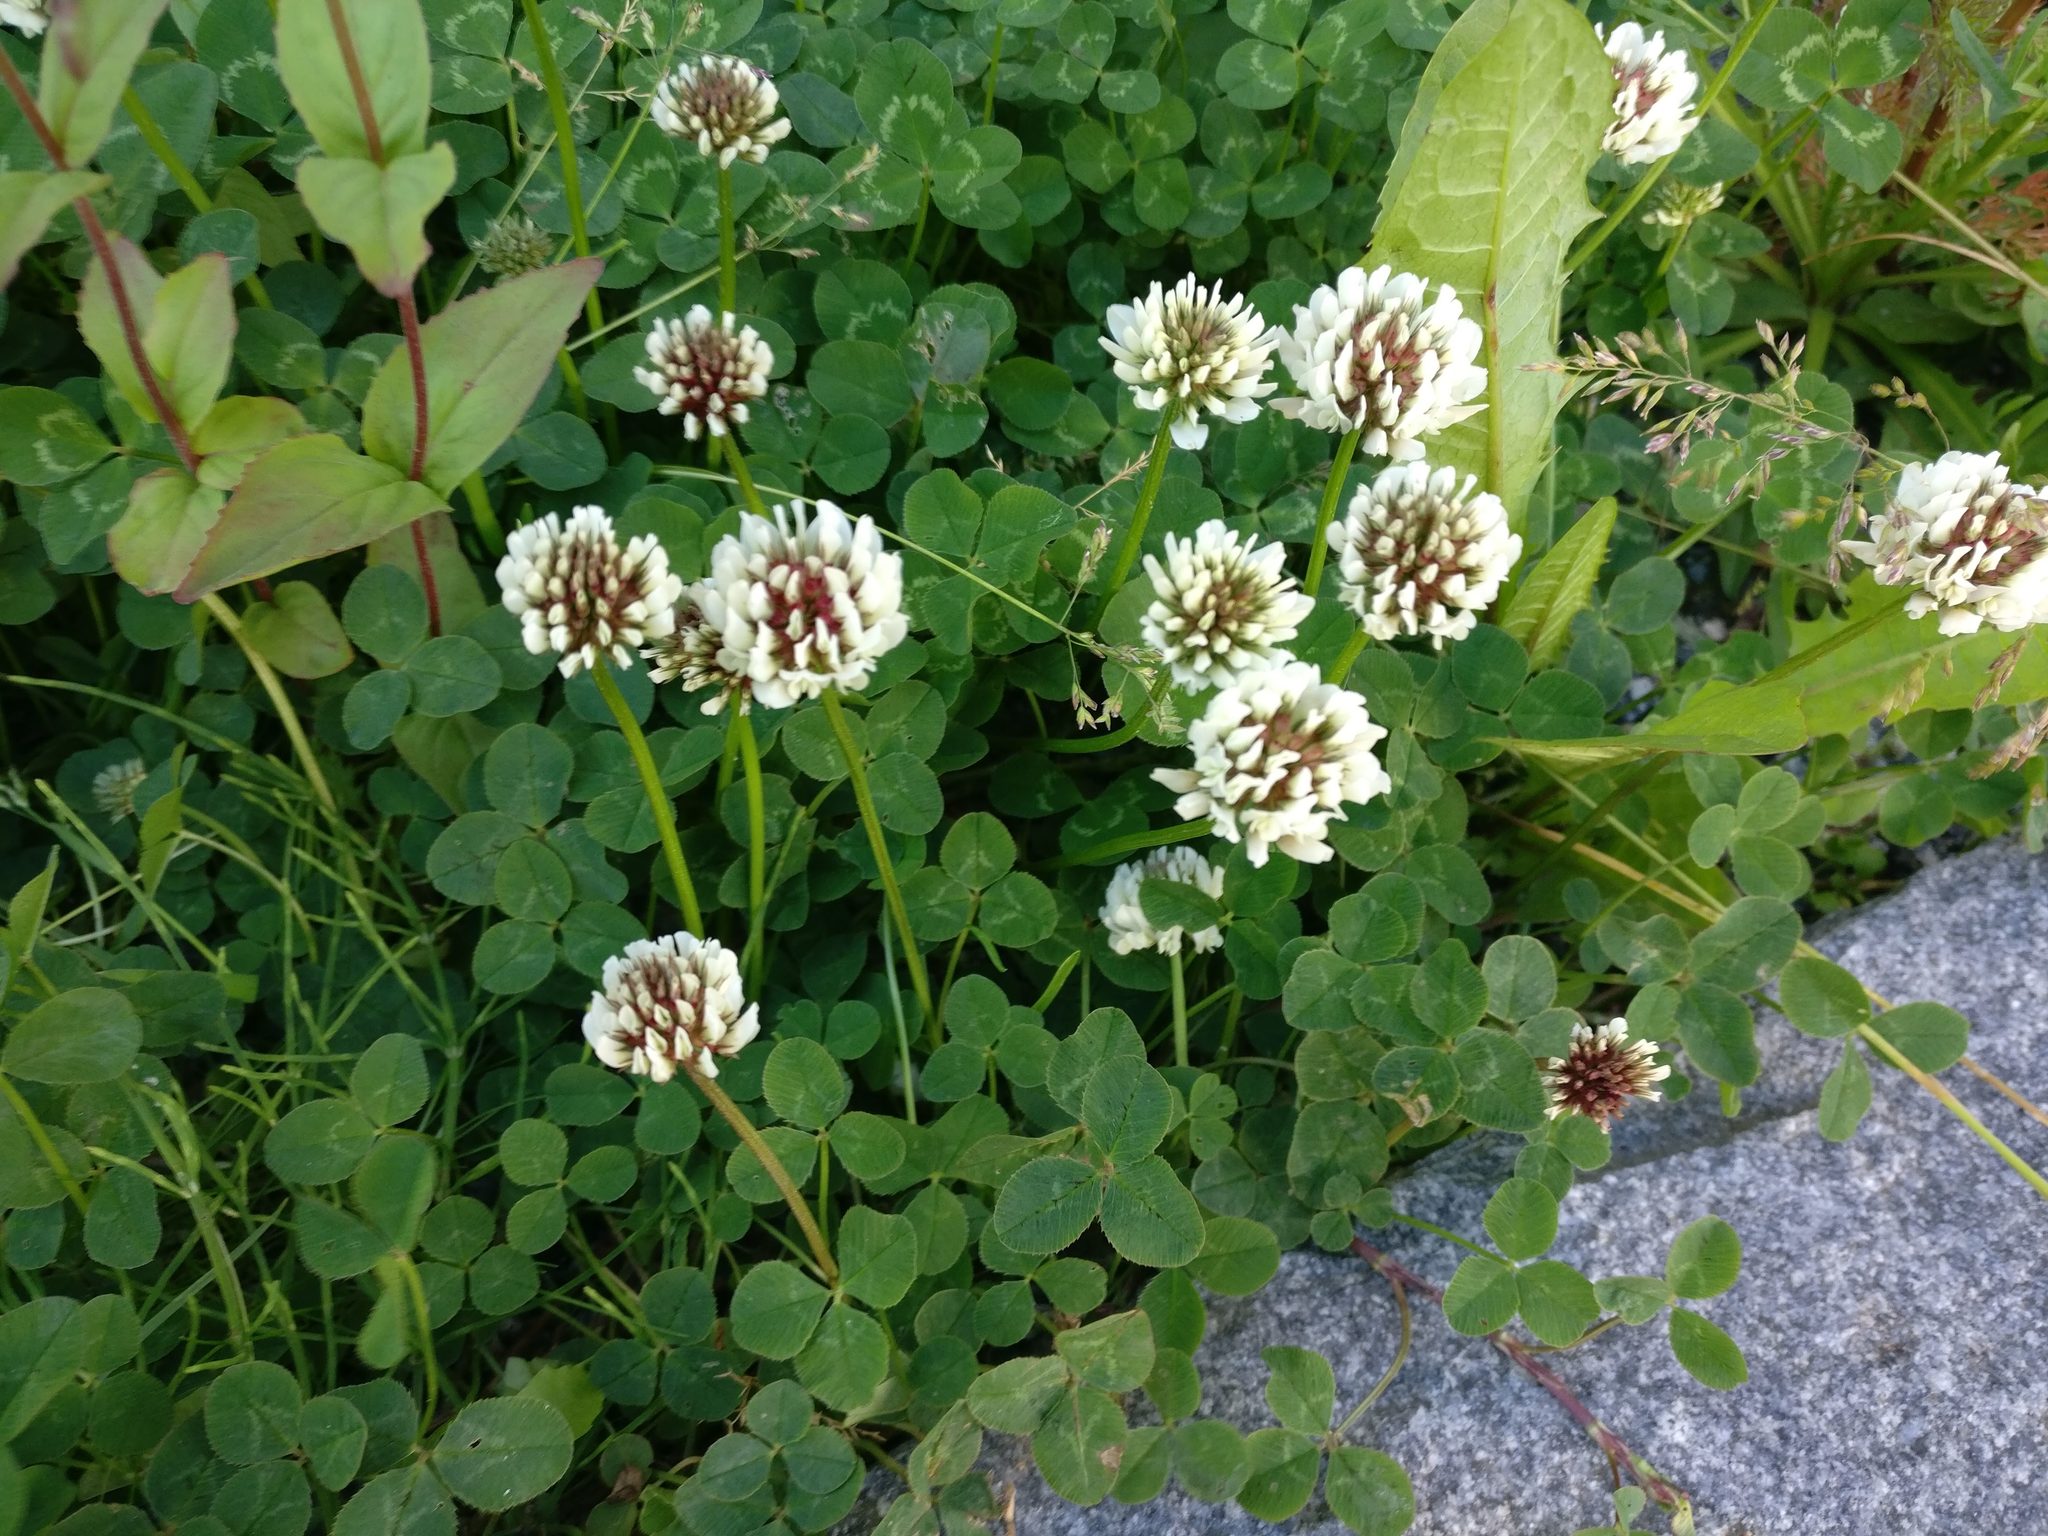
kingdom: Plantae
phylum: Tracheophyta
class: Magnoliopsida
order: Fabales
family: Fabaceae
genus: Trifolium
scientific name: Trifolium repens
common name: White clover
